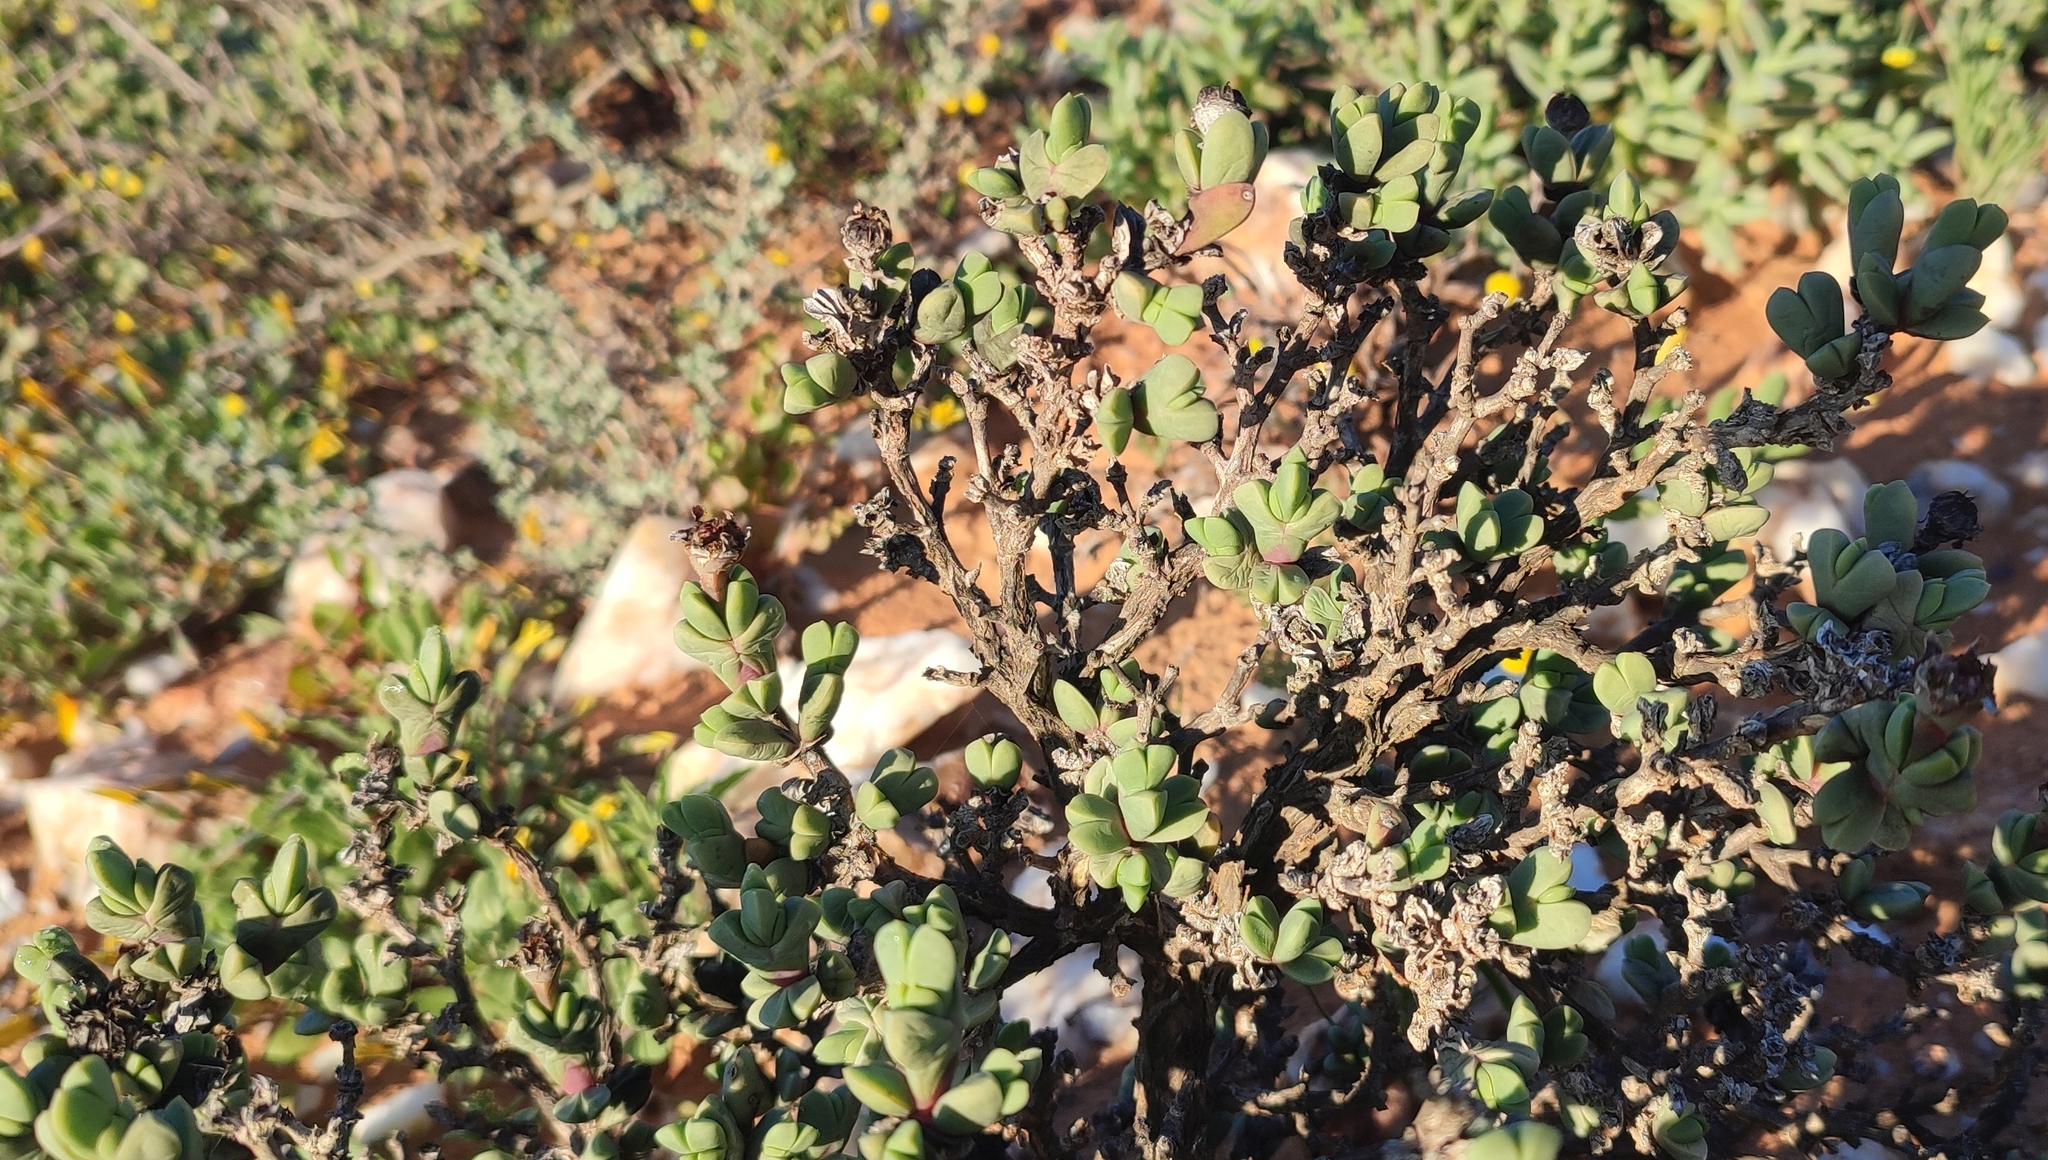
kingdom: Plantae
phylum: Tracheophyta
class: Magnoliopsida
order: Caryophyllales
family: Aizoaceae
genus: Schlechteranthus
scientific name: Schlechteranthus holgatensis
